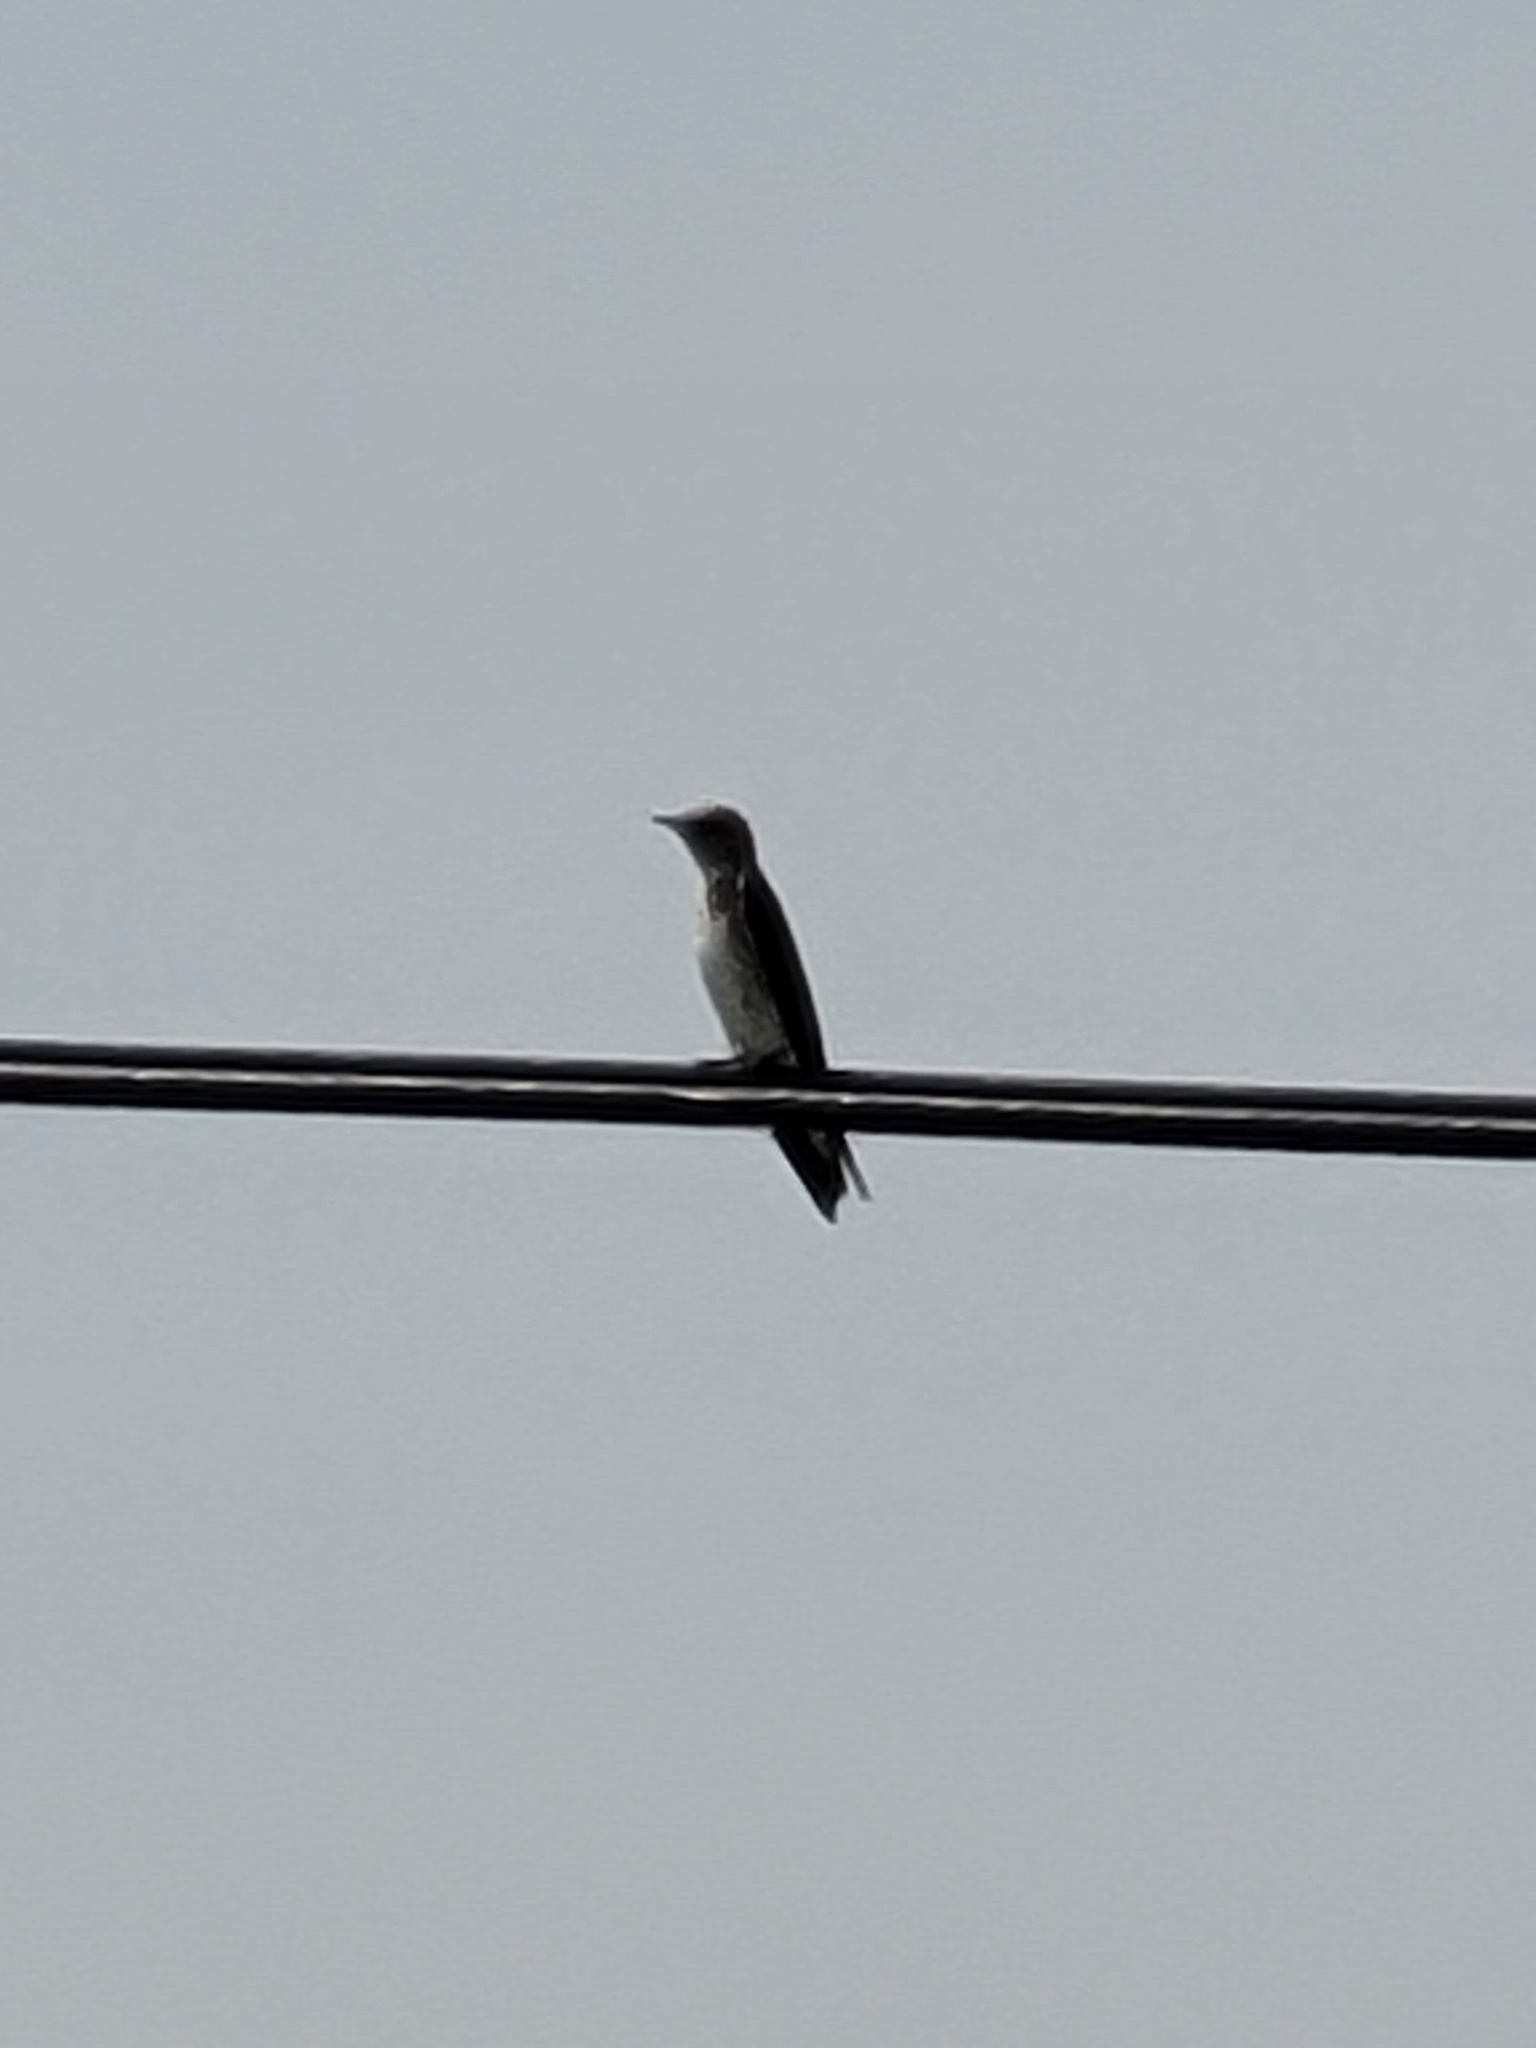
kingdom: Animalia
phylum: Chordata
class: Aves
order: Passeriformes
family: Hirundinidae
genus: Stelgidopteryx
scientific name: Stelgidopteryx serripennis
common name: Northern rough-winged swallow
